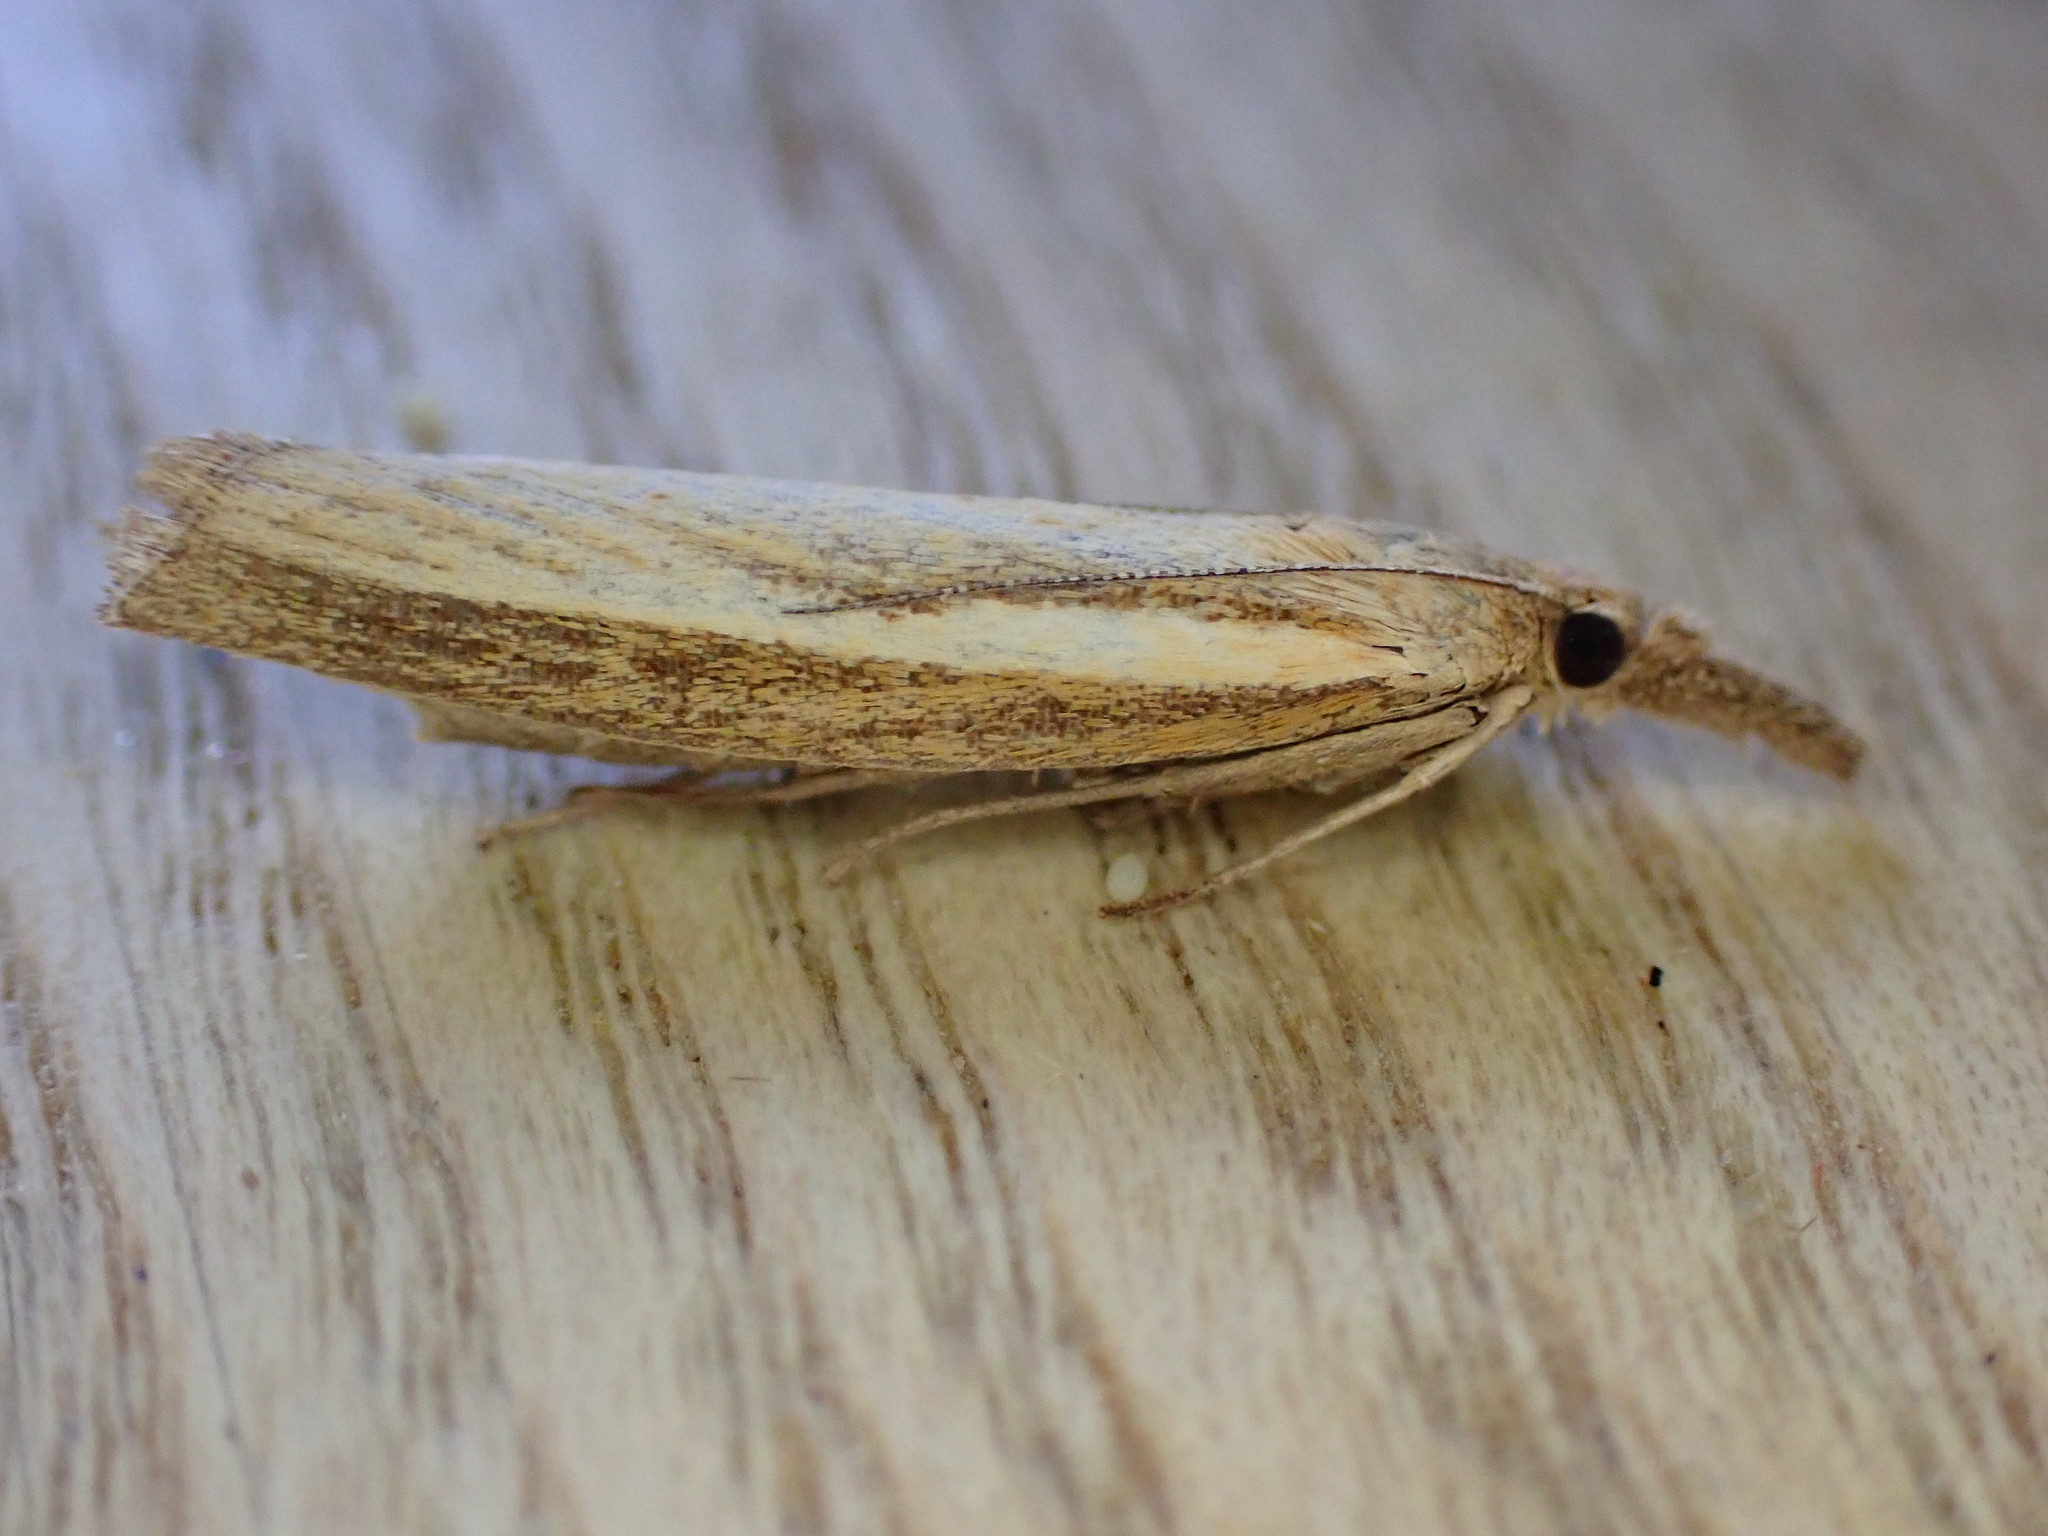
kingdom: Animalia
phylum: Arthropoda
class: Insecta
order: Lepidoptera
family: Crambidae
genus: Agriphila
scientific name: Agriphila tristellus
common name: Common grass-veneer
